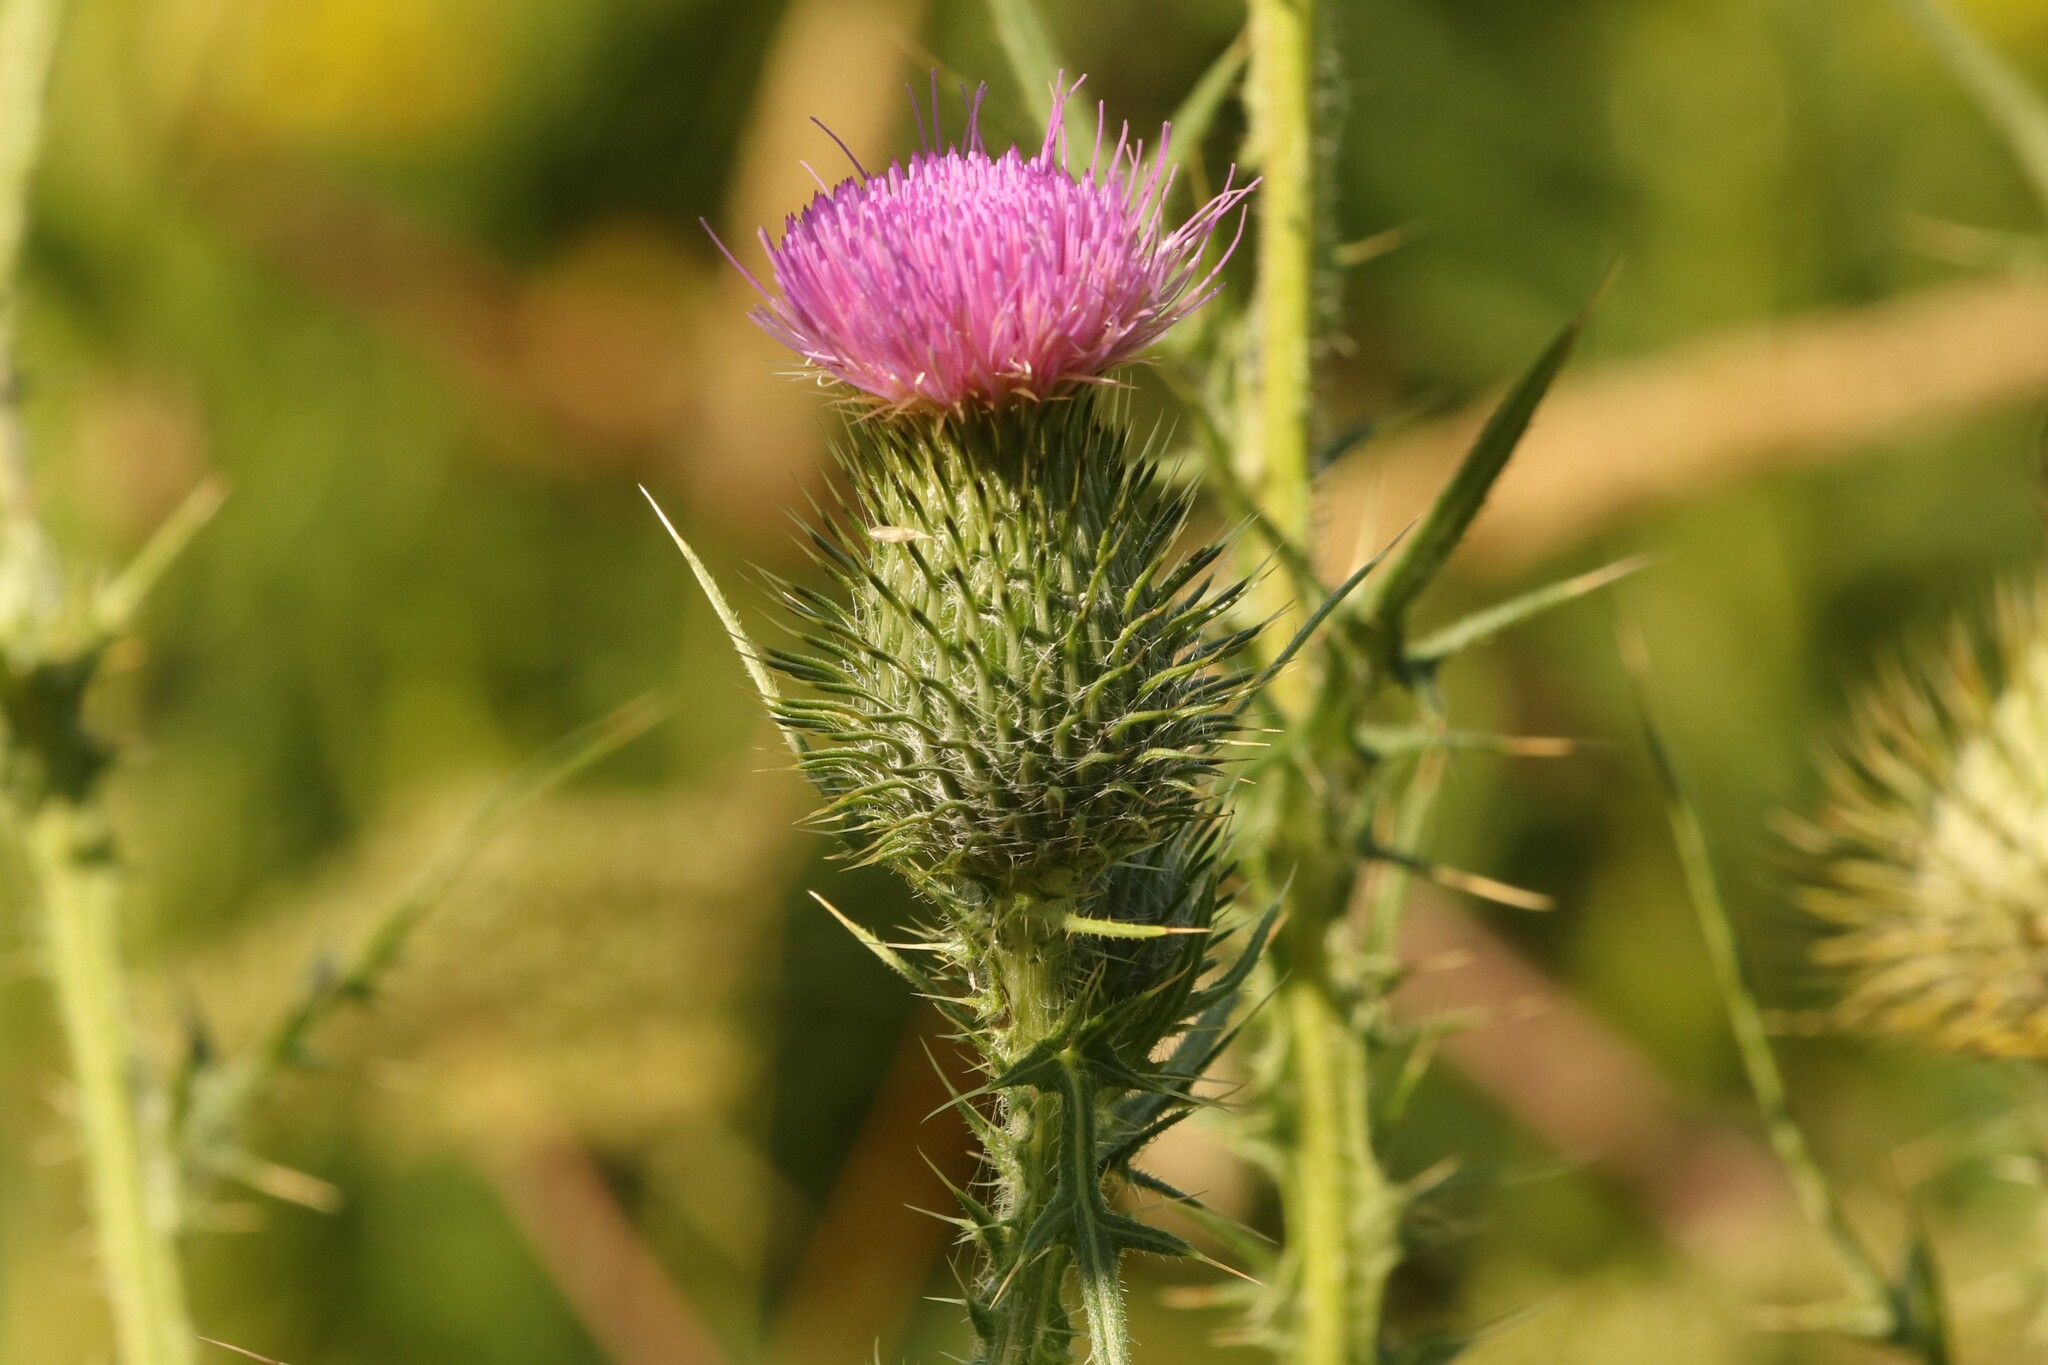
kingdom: Plantae
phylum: Tracheophyta
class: Magnoliopsida
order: Asterales
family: Asteraceae
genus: Cirsium
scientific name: Cirsium vulgare
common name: Bull thistle
